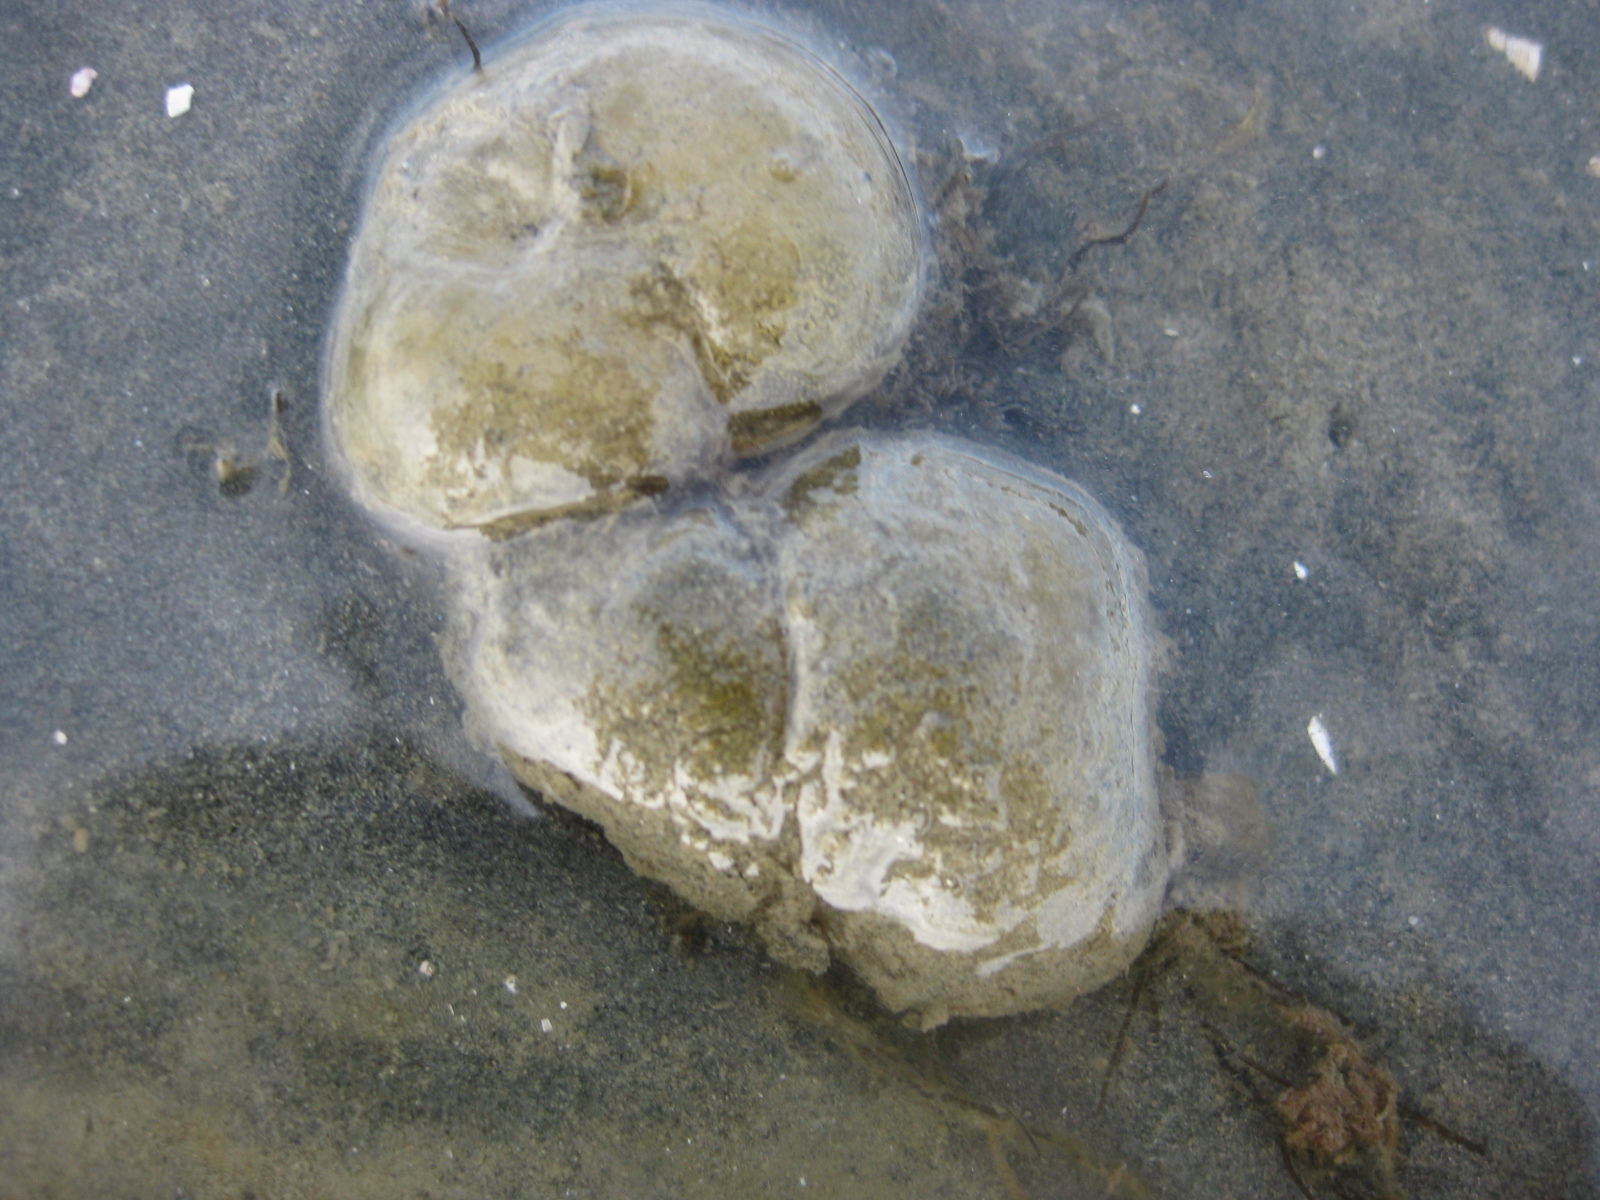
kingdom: Animalia
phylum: Mollusca
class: Gastropoda
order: Cephalaspidea
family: Haminoeidae
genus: Papawera
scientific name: Papawera zelandiae
